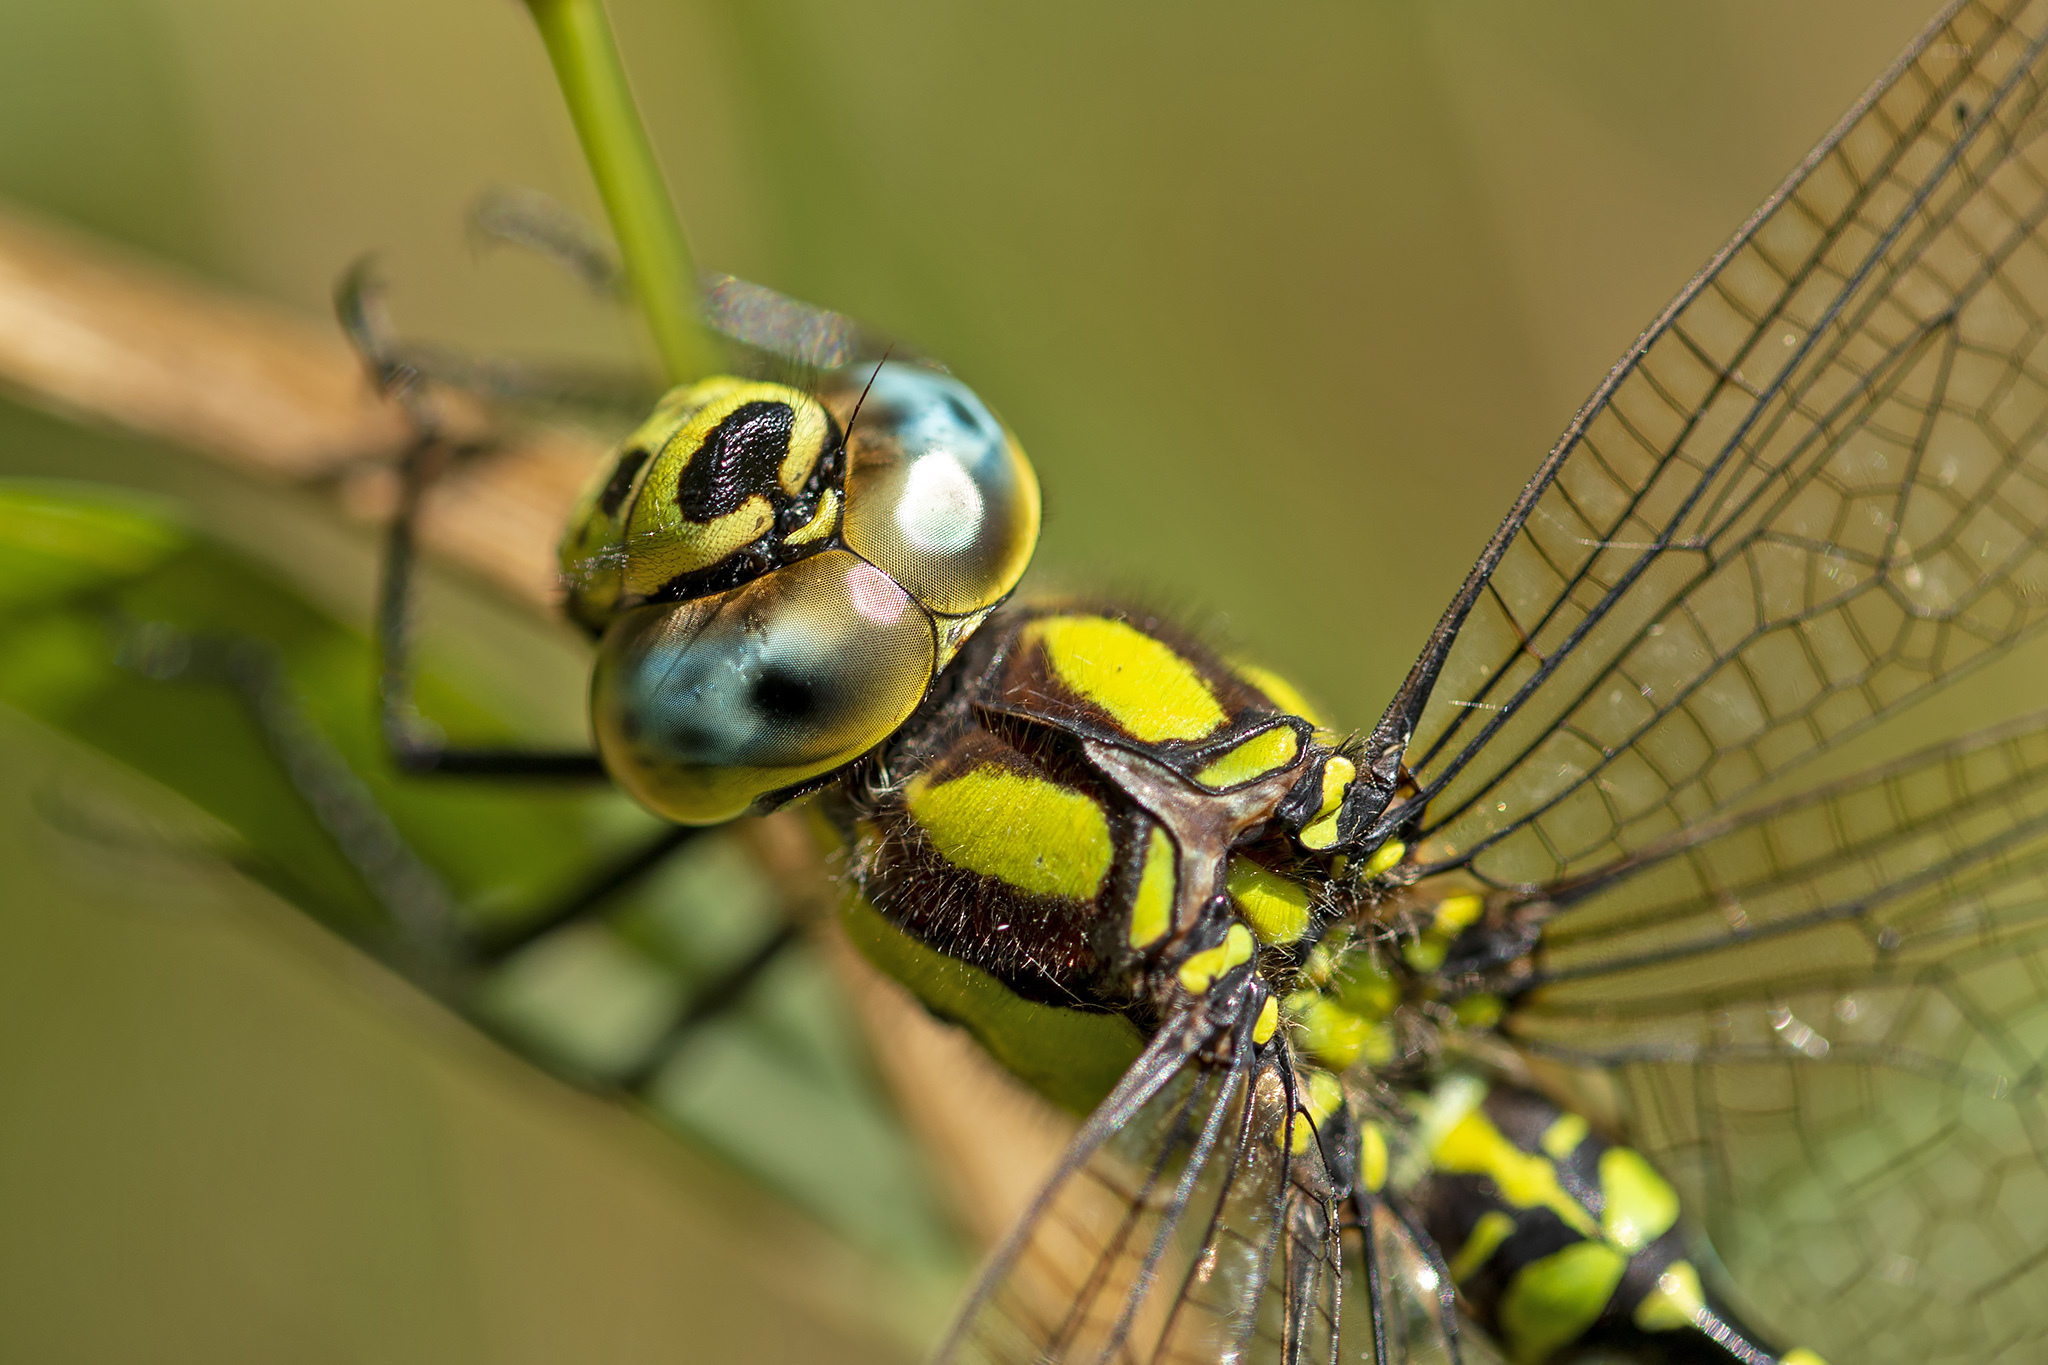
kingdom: Animalia
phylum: Arthropoda
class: Insecta
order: Odonata
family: Aeshnidae
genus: Aeshna
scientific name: Aeshna cyanea
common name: Southern hawker
